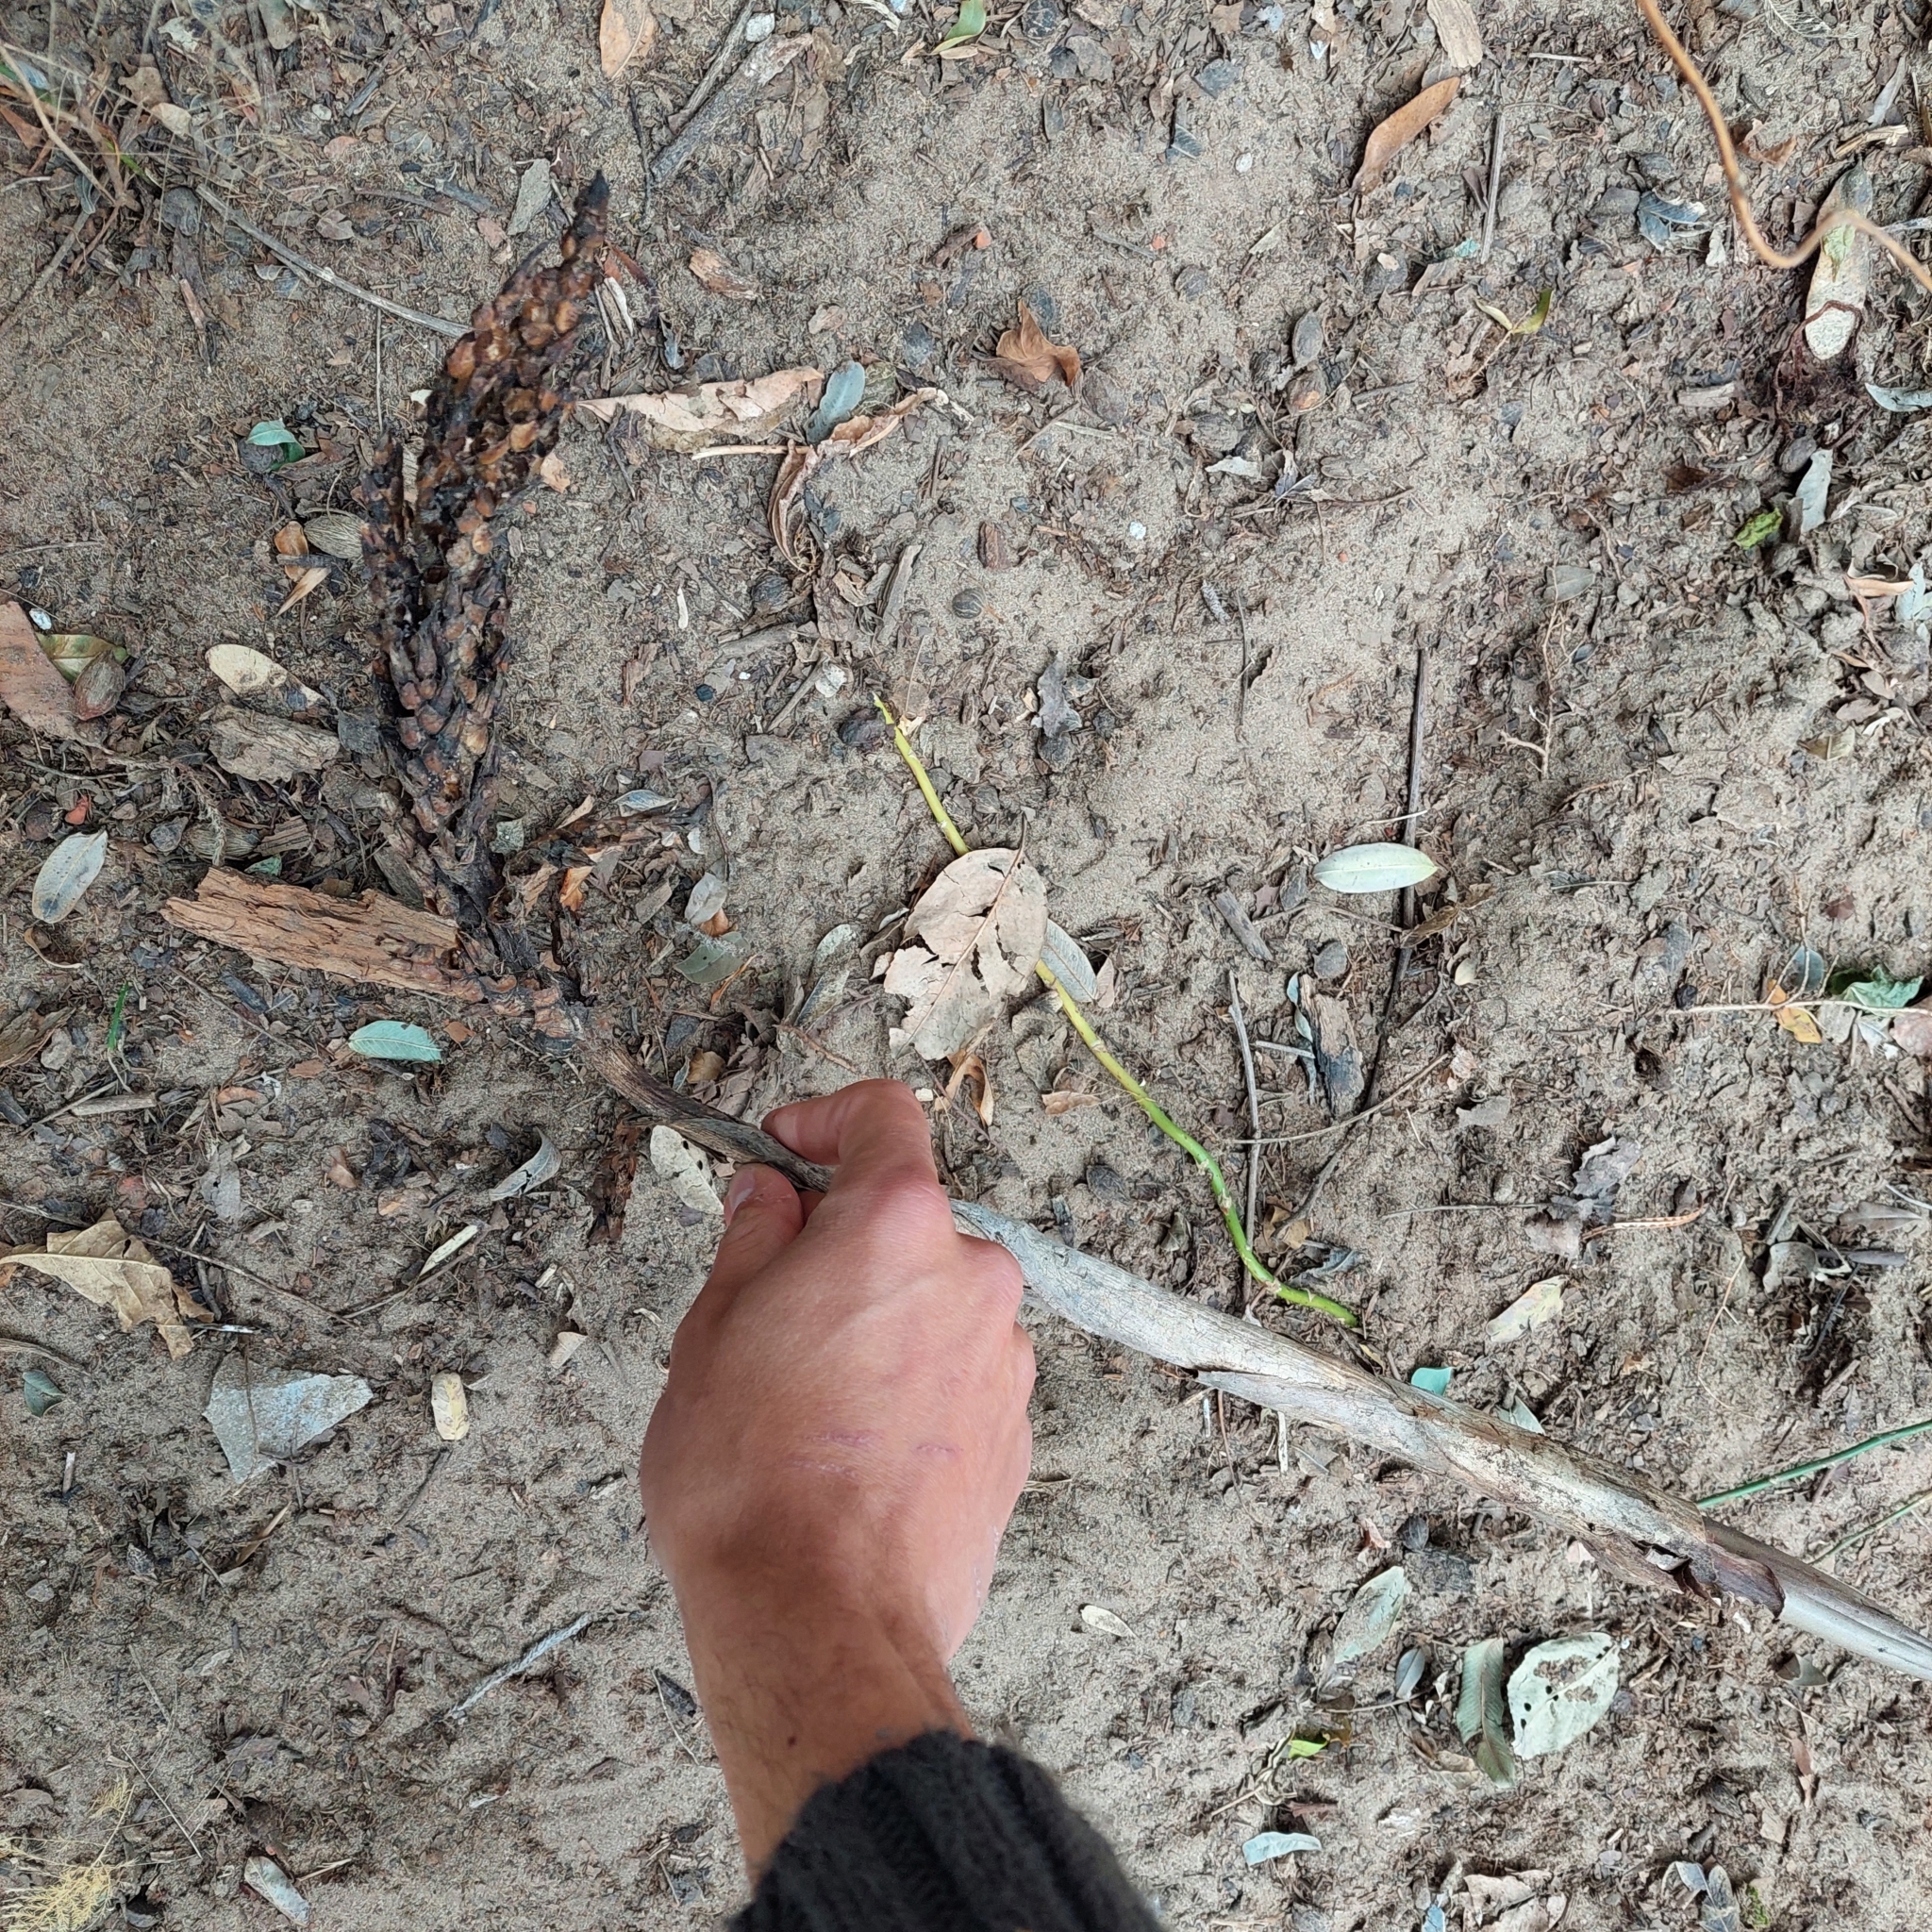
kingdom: Plantae
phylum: Tracheophyta
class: Liliopsida
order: Poales
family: Bromeliaceae
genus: Aechmea
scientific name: Aechmea distichantha
